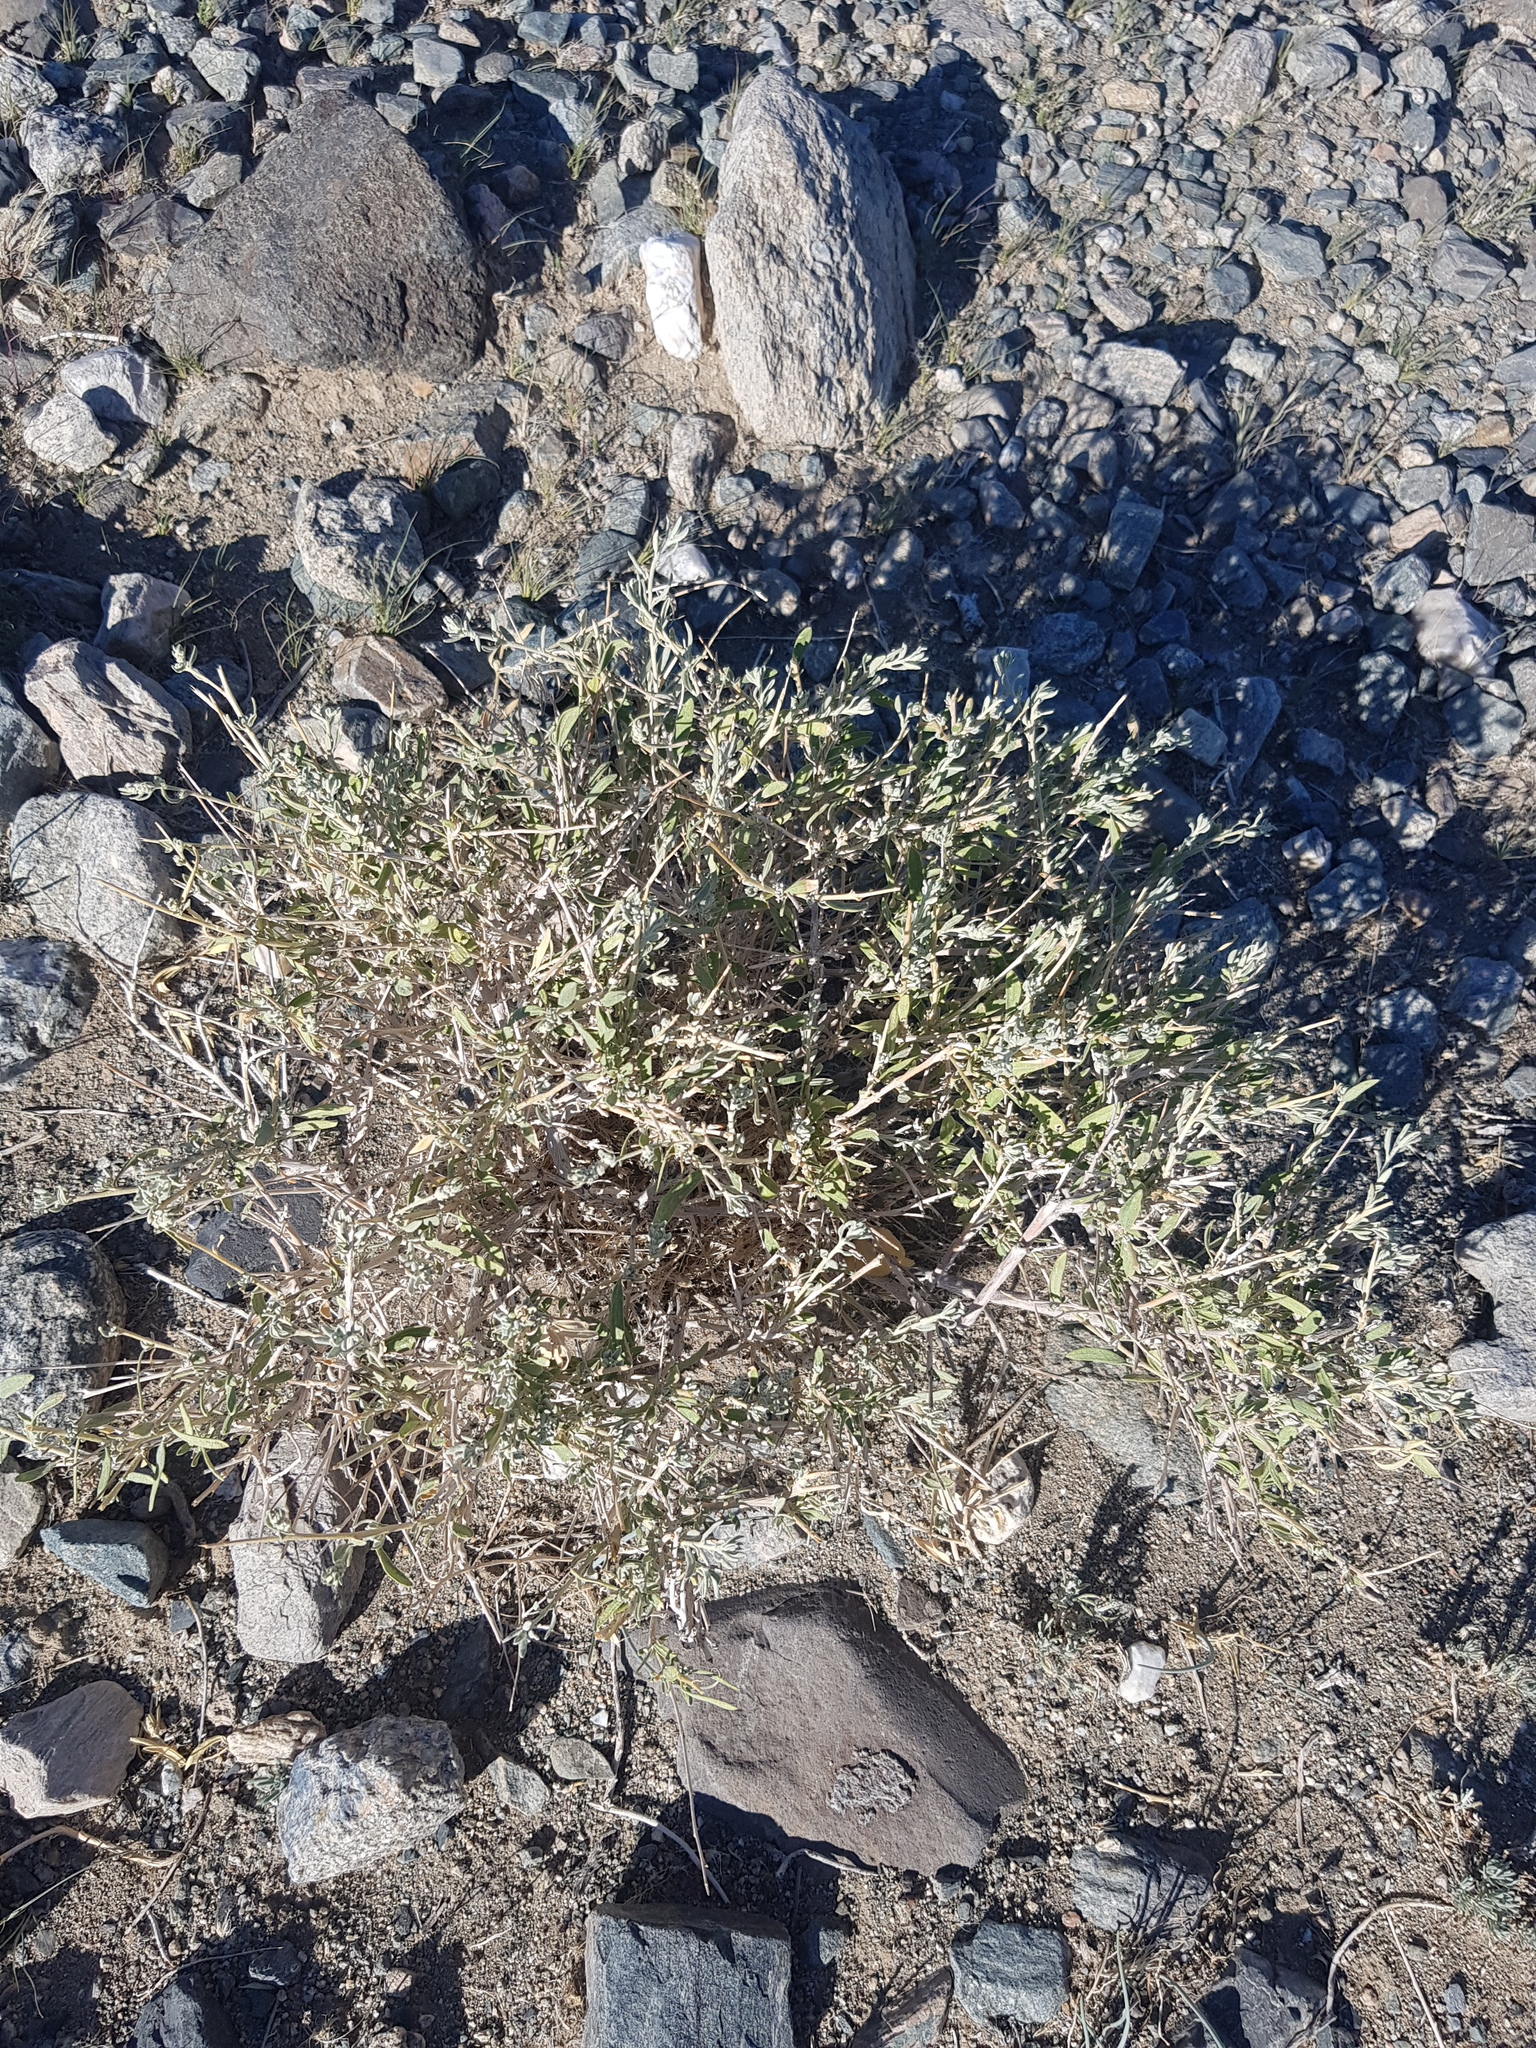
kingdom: Plantae
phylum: Tracheophyta
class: Magnoliopsida
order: Caryophyllales
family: Amaranthaceae
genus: Krascheninnikovia
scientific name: Krascheninnikovia ceratoides
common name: Pamirian winterfat
